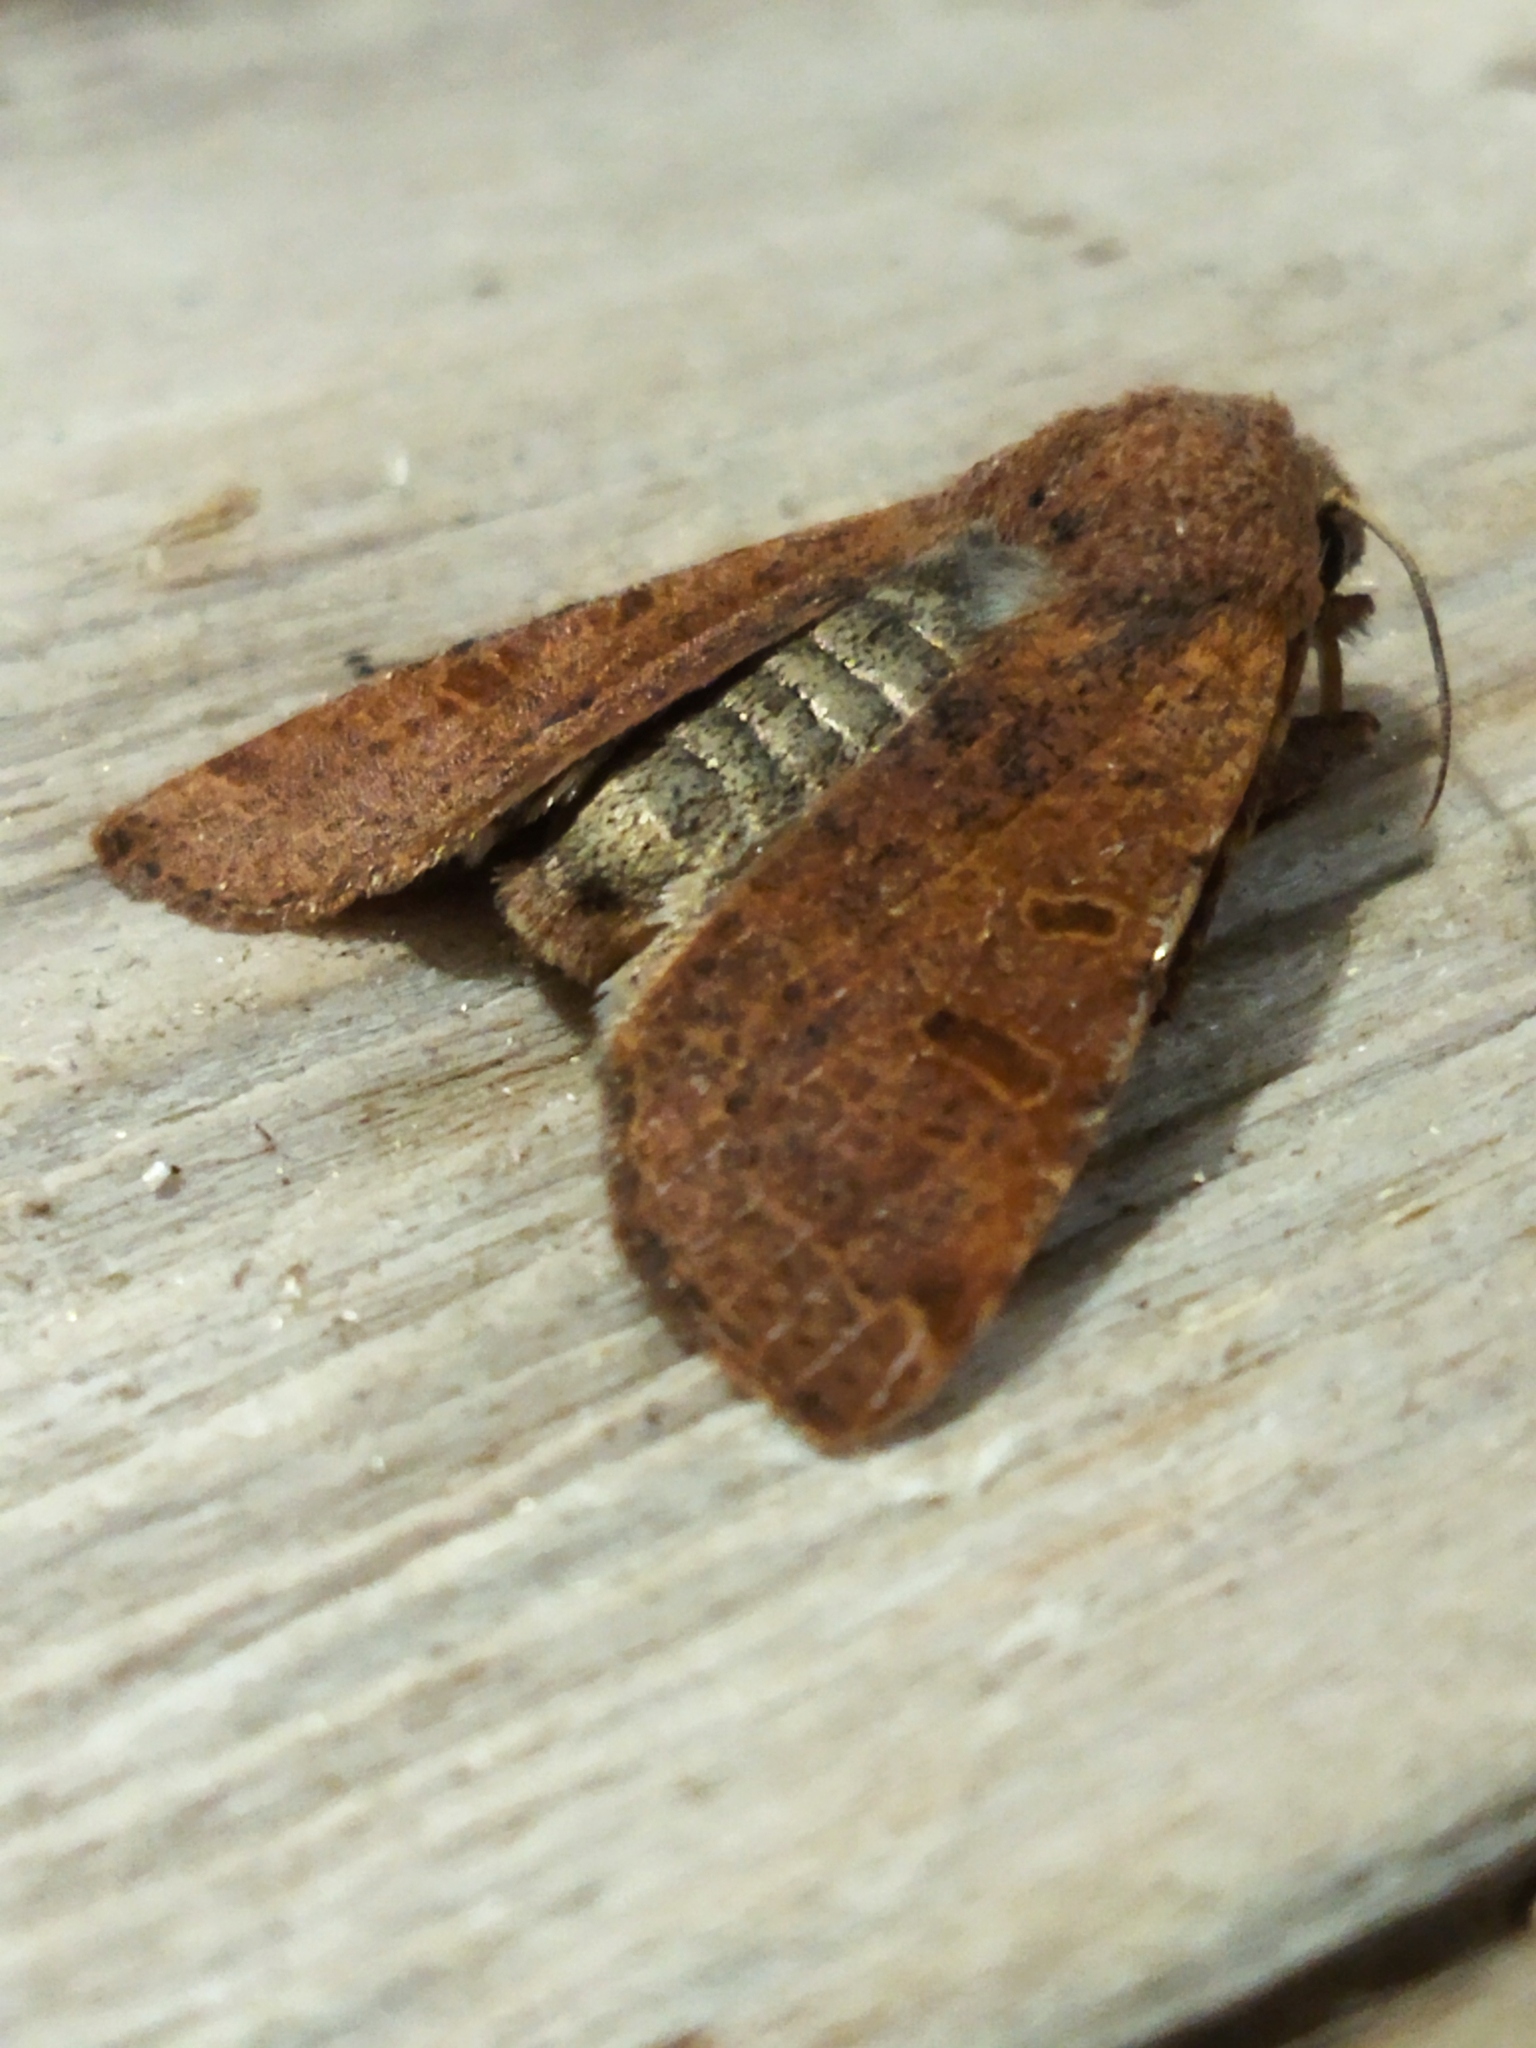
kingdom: Animalia
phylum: Arthropoda
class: Insecta
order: Lepidoptera
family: Noctuidae
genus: Agrochola
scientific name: Agrochola lychnidis
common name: Beaded chestnut
